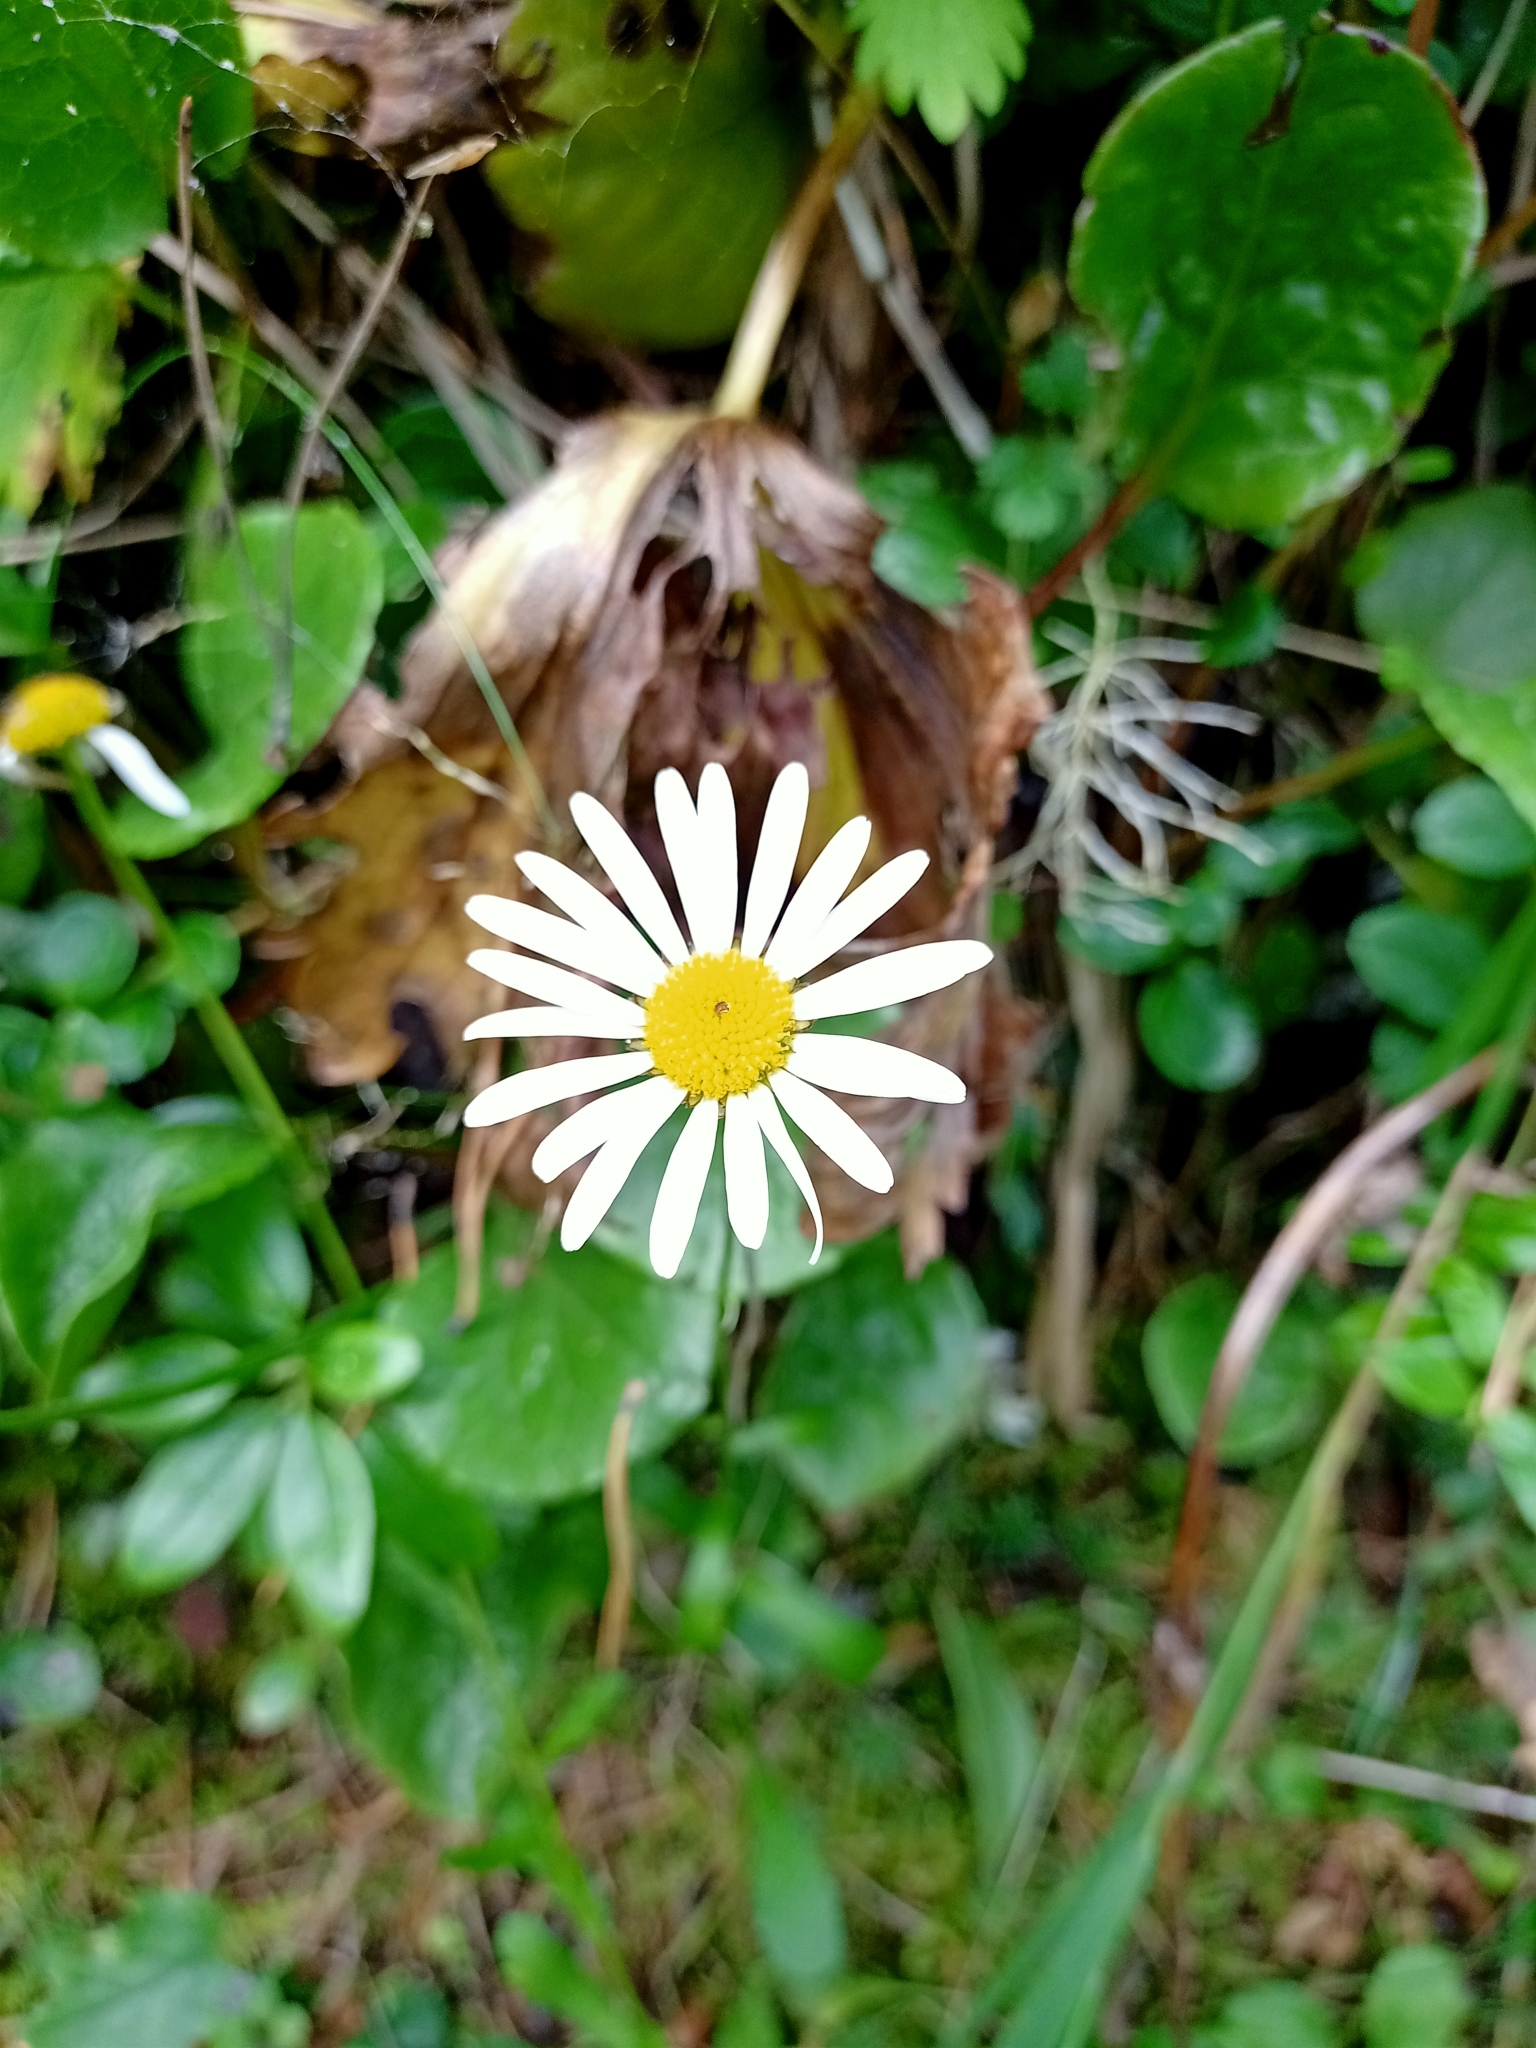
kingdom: Plantae
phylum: Tracheophyta
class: Magnoliopsida
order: Asterales
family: Asteraceae
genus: Leucanthemum
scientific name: Leucanthemum ircutianum
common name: Daisy
